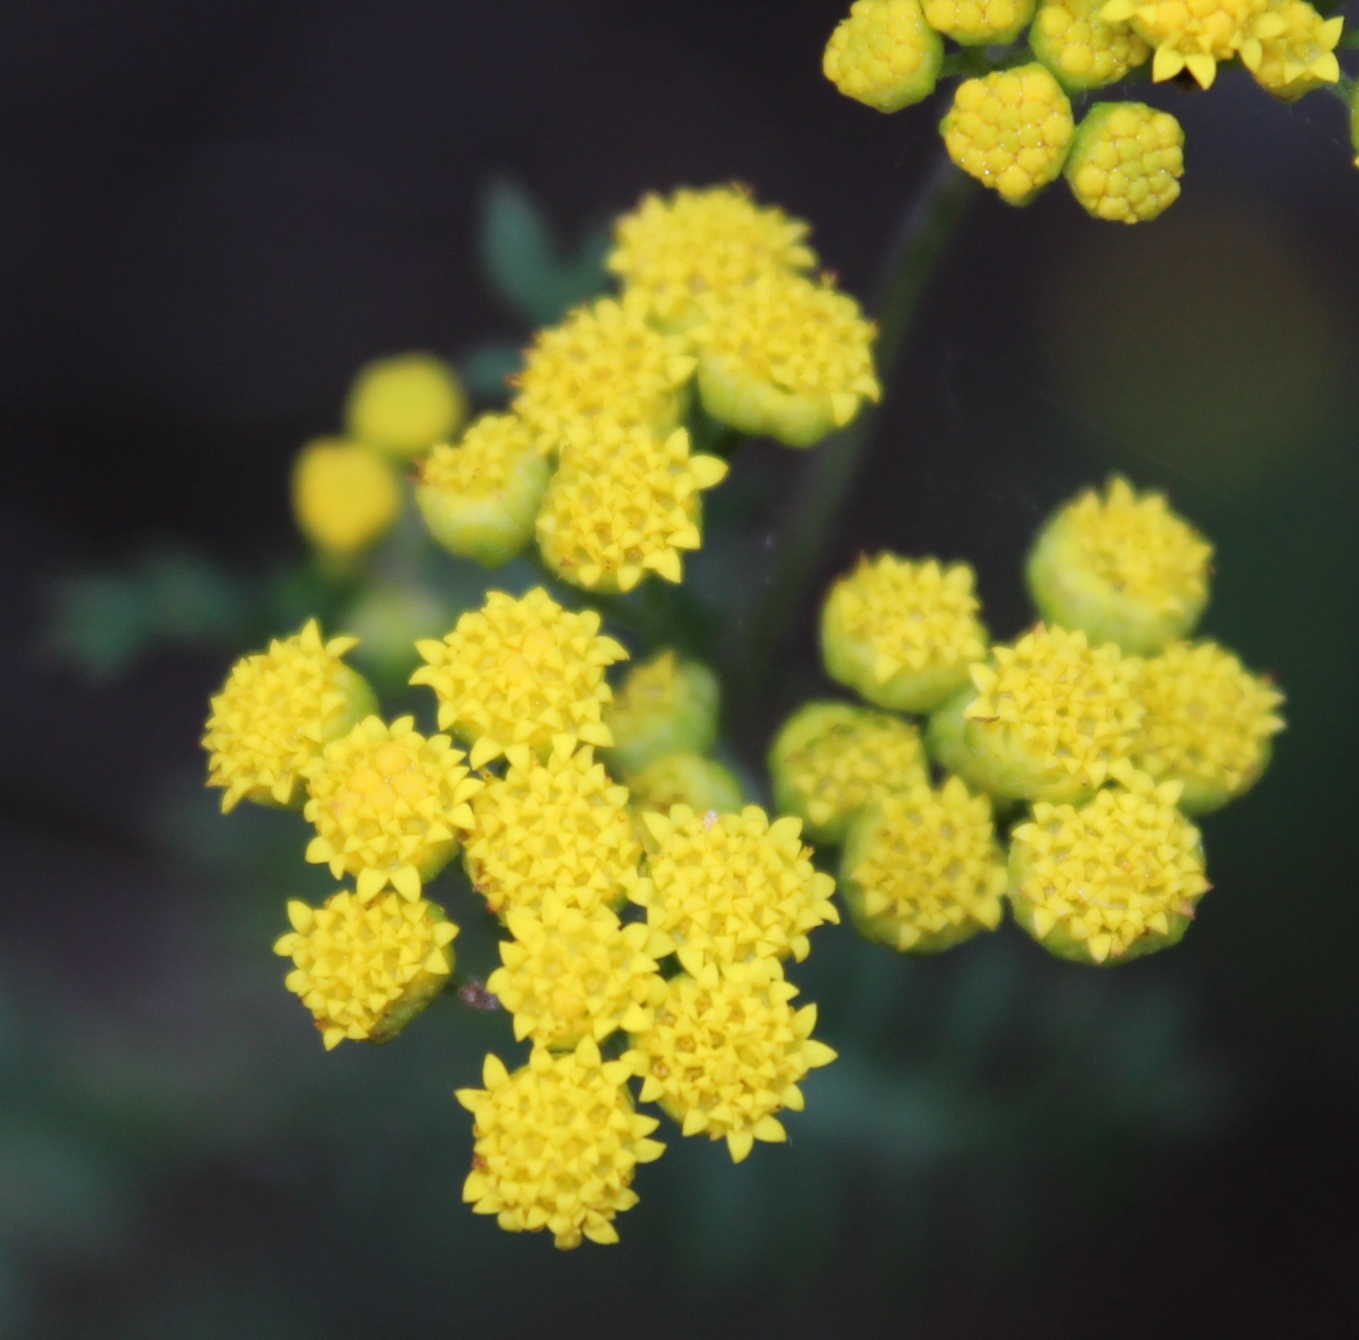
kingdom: Plantae
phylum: Tracheophyta
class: Magnoliopsida
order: Asterales
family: Asteraceae
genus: Hippia
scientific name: Hippia frutescens
